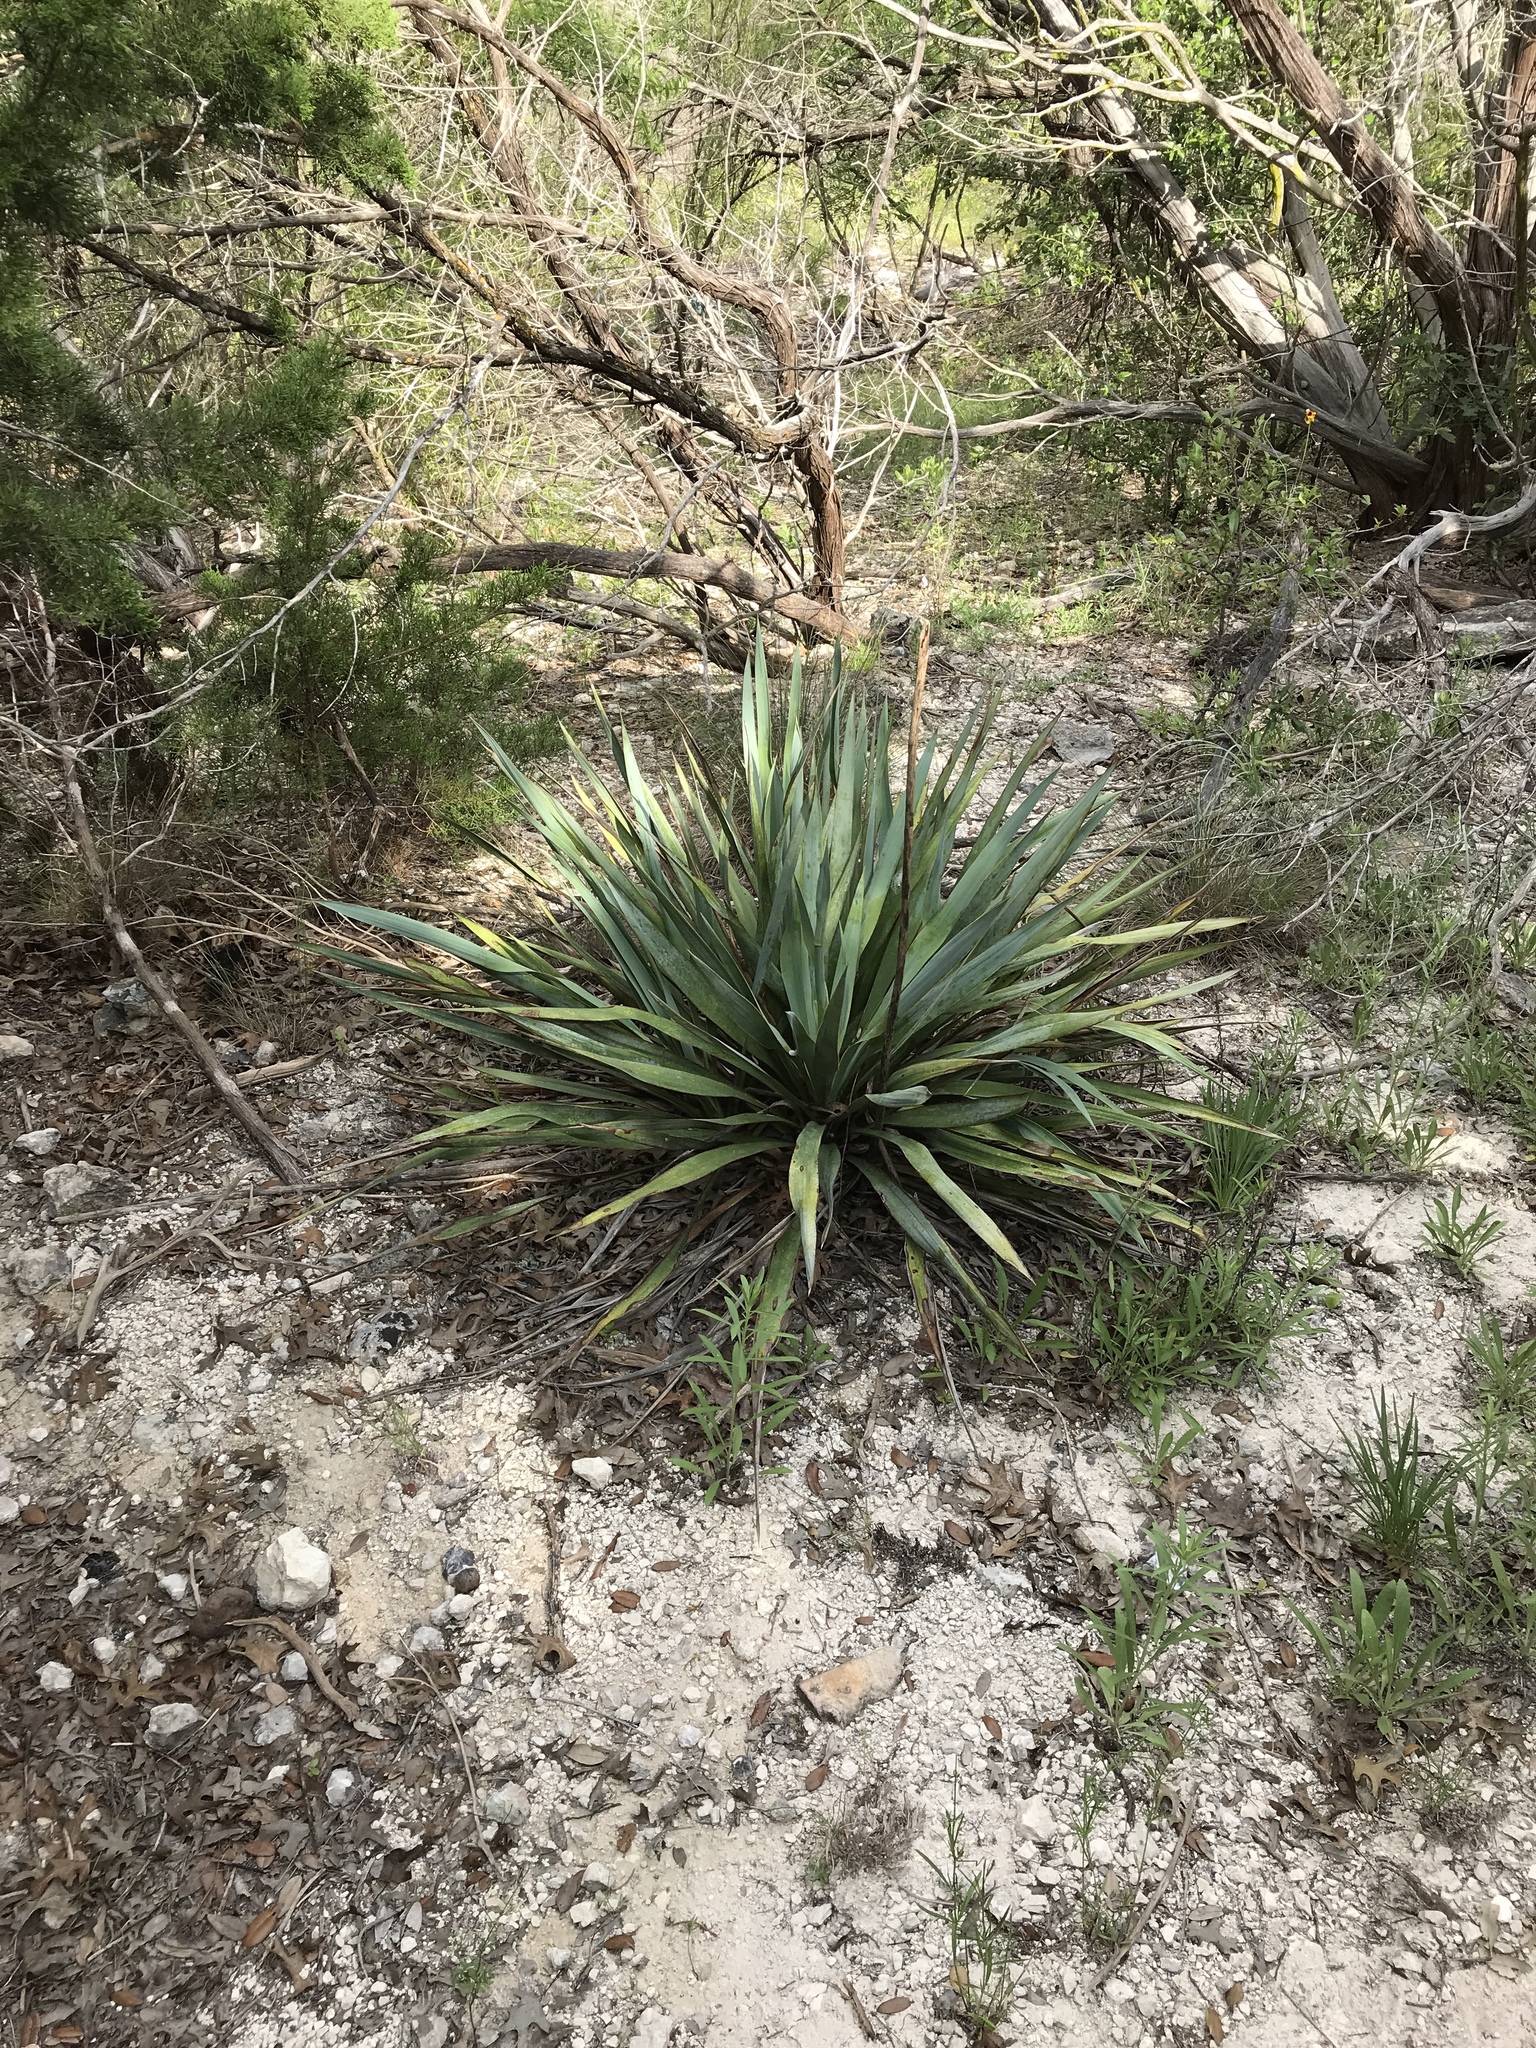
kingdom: Plantae
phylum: Tracheophyta
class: Liliopsida
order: Asparagales
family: Asparagaceae
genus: Yucca
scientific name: Yucca pallida
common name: Pale leaf yucca
